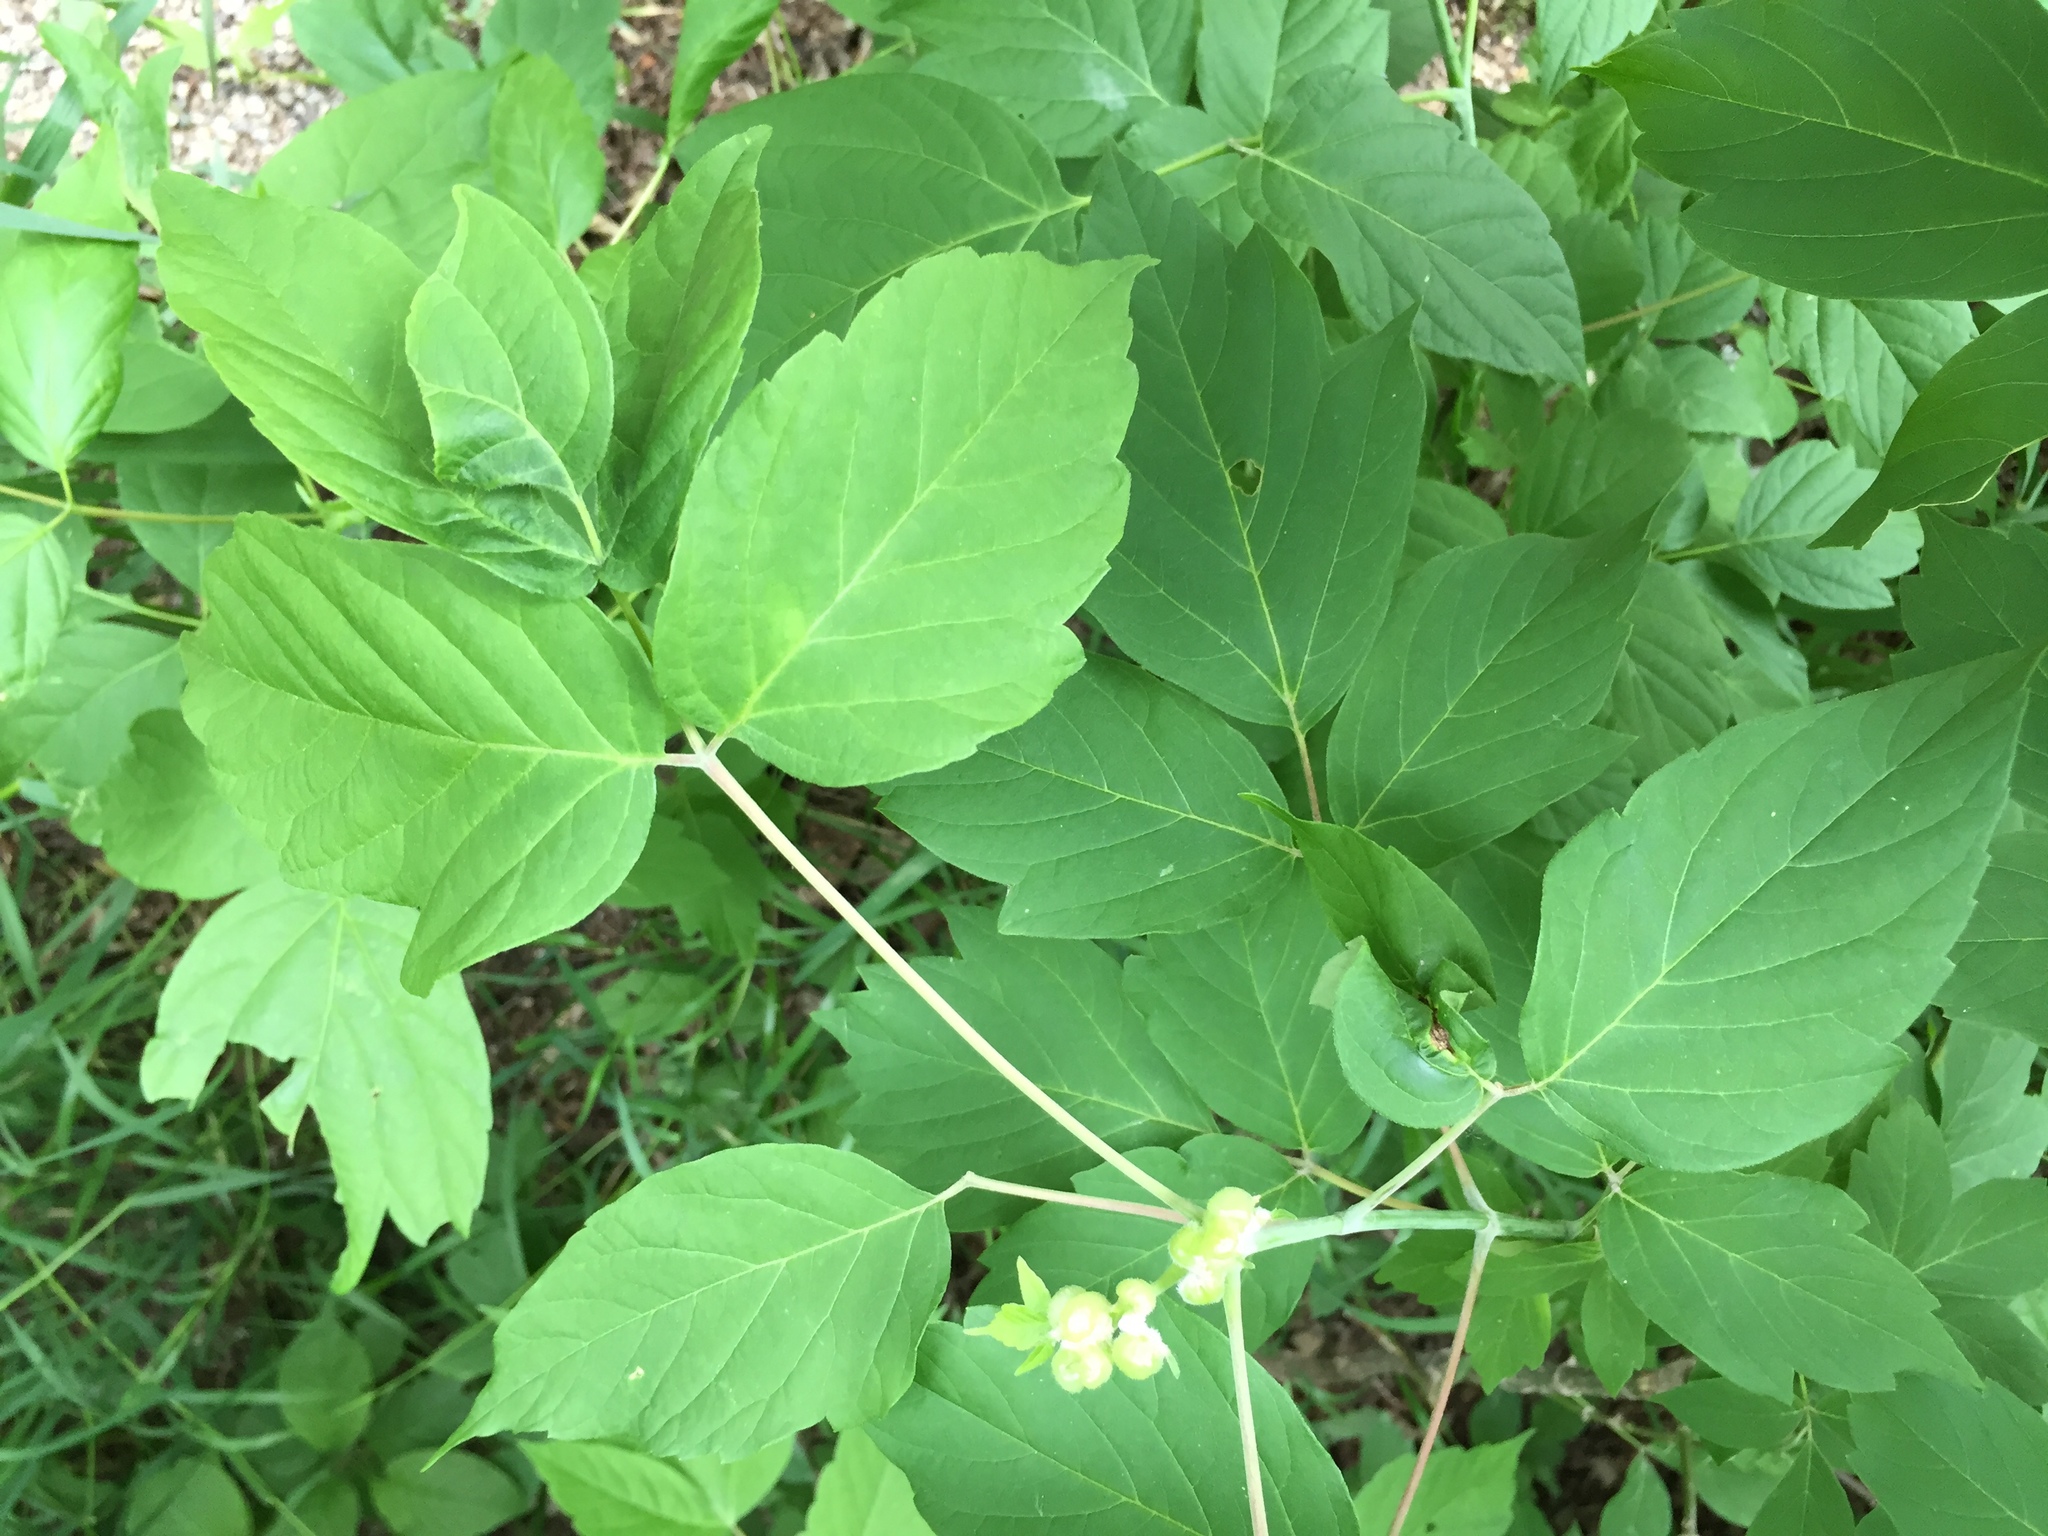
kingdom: Animalia
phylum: Arthropoda
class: Insecta
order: Diptera
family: Cecidomyiidae
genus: Contarinia
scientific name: Contarinia negundinis
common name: Boxelder budgall midge
